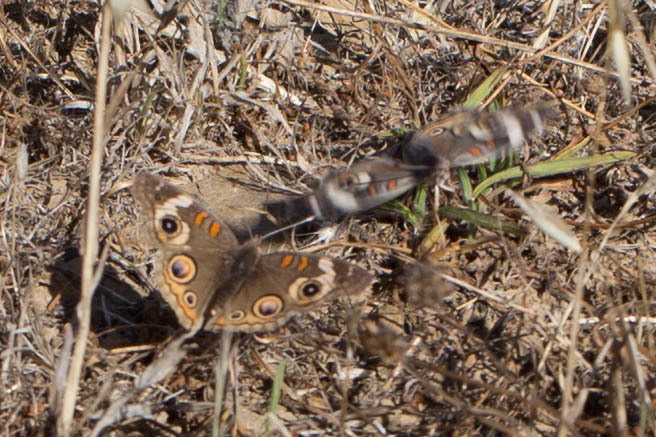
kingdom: Animalia
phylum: Arthropoda
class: Insecta
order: Lepidoptera
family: Nymphalidae
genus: Junonia
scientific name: Junonia grisea
